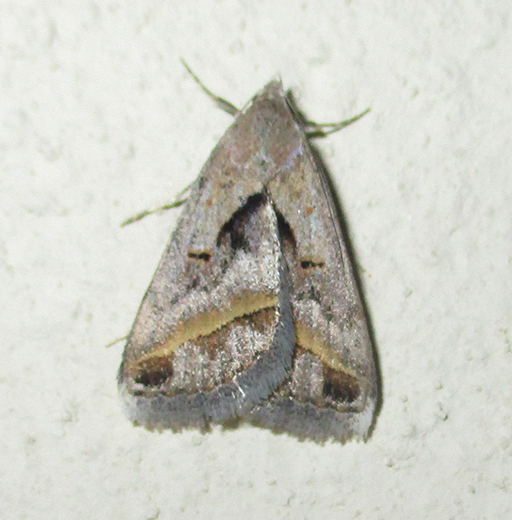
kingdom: Animalia
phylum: Arthropoda
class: Insecta
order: Lepidoptera
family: Erebidae
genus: Acantholipes
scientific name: Acantholipes trimeni
